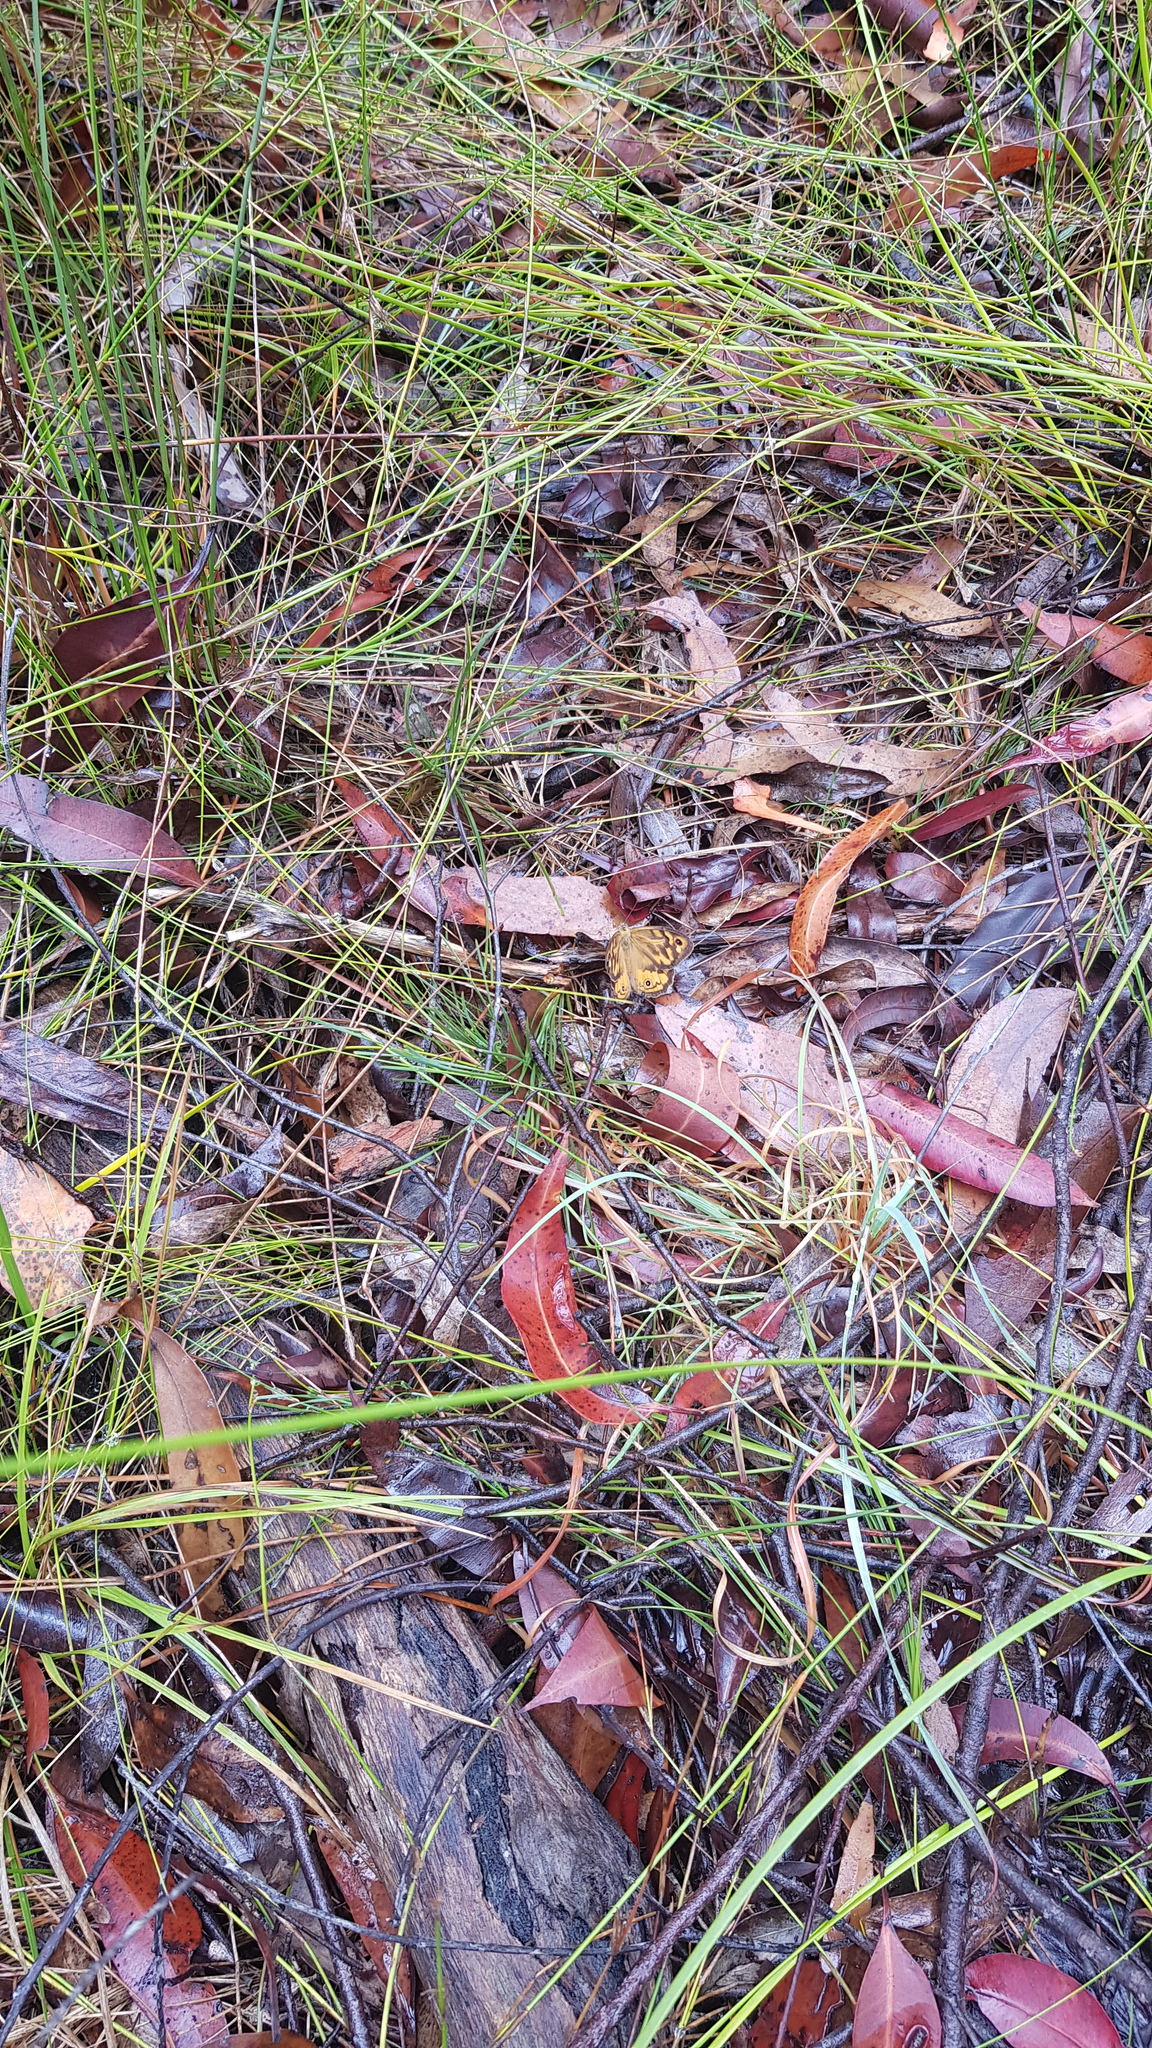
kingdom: Animalia
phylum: Arthropoda
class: Insecta
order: Lepidoptera
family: Nymphalidae
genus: Heteronympha
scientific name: Heteronympha merope
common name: Common brown
